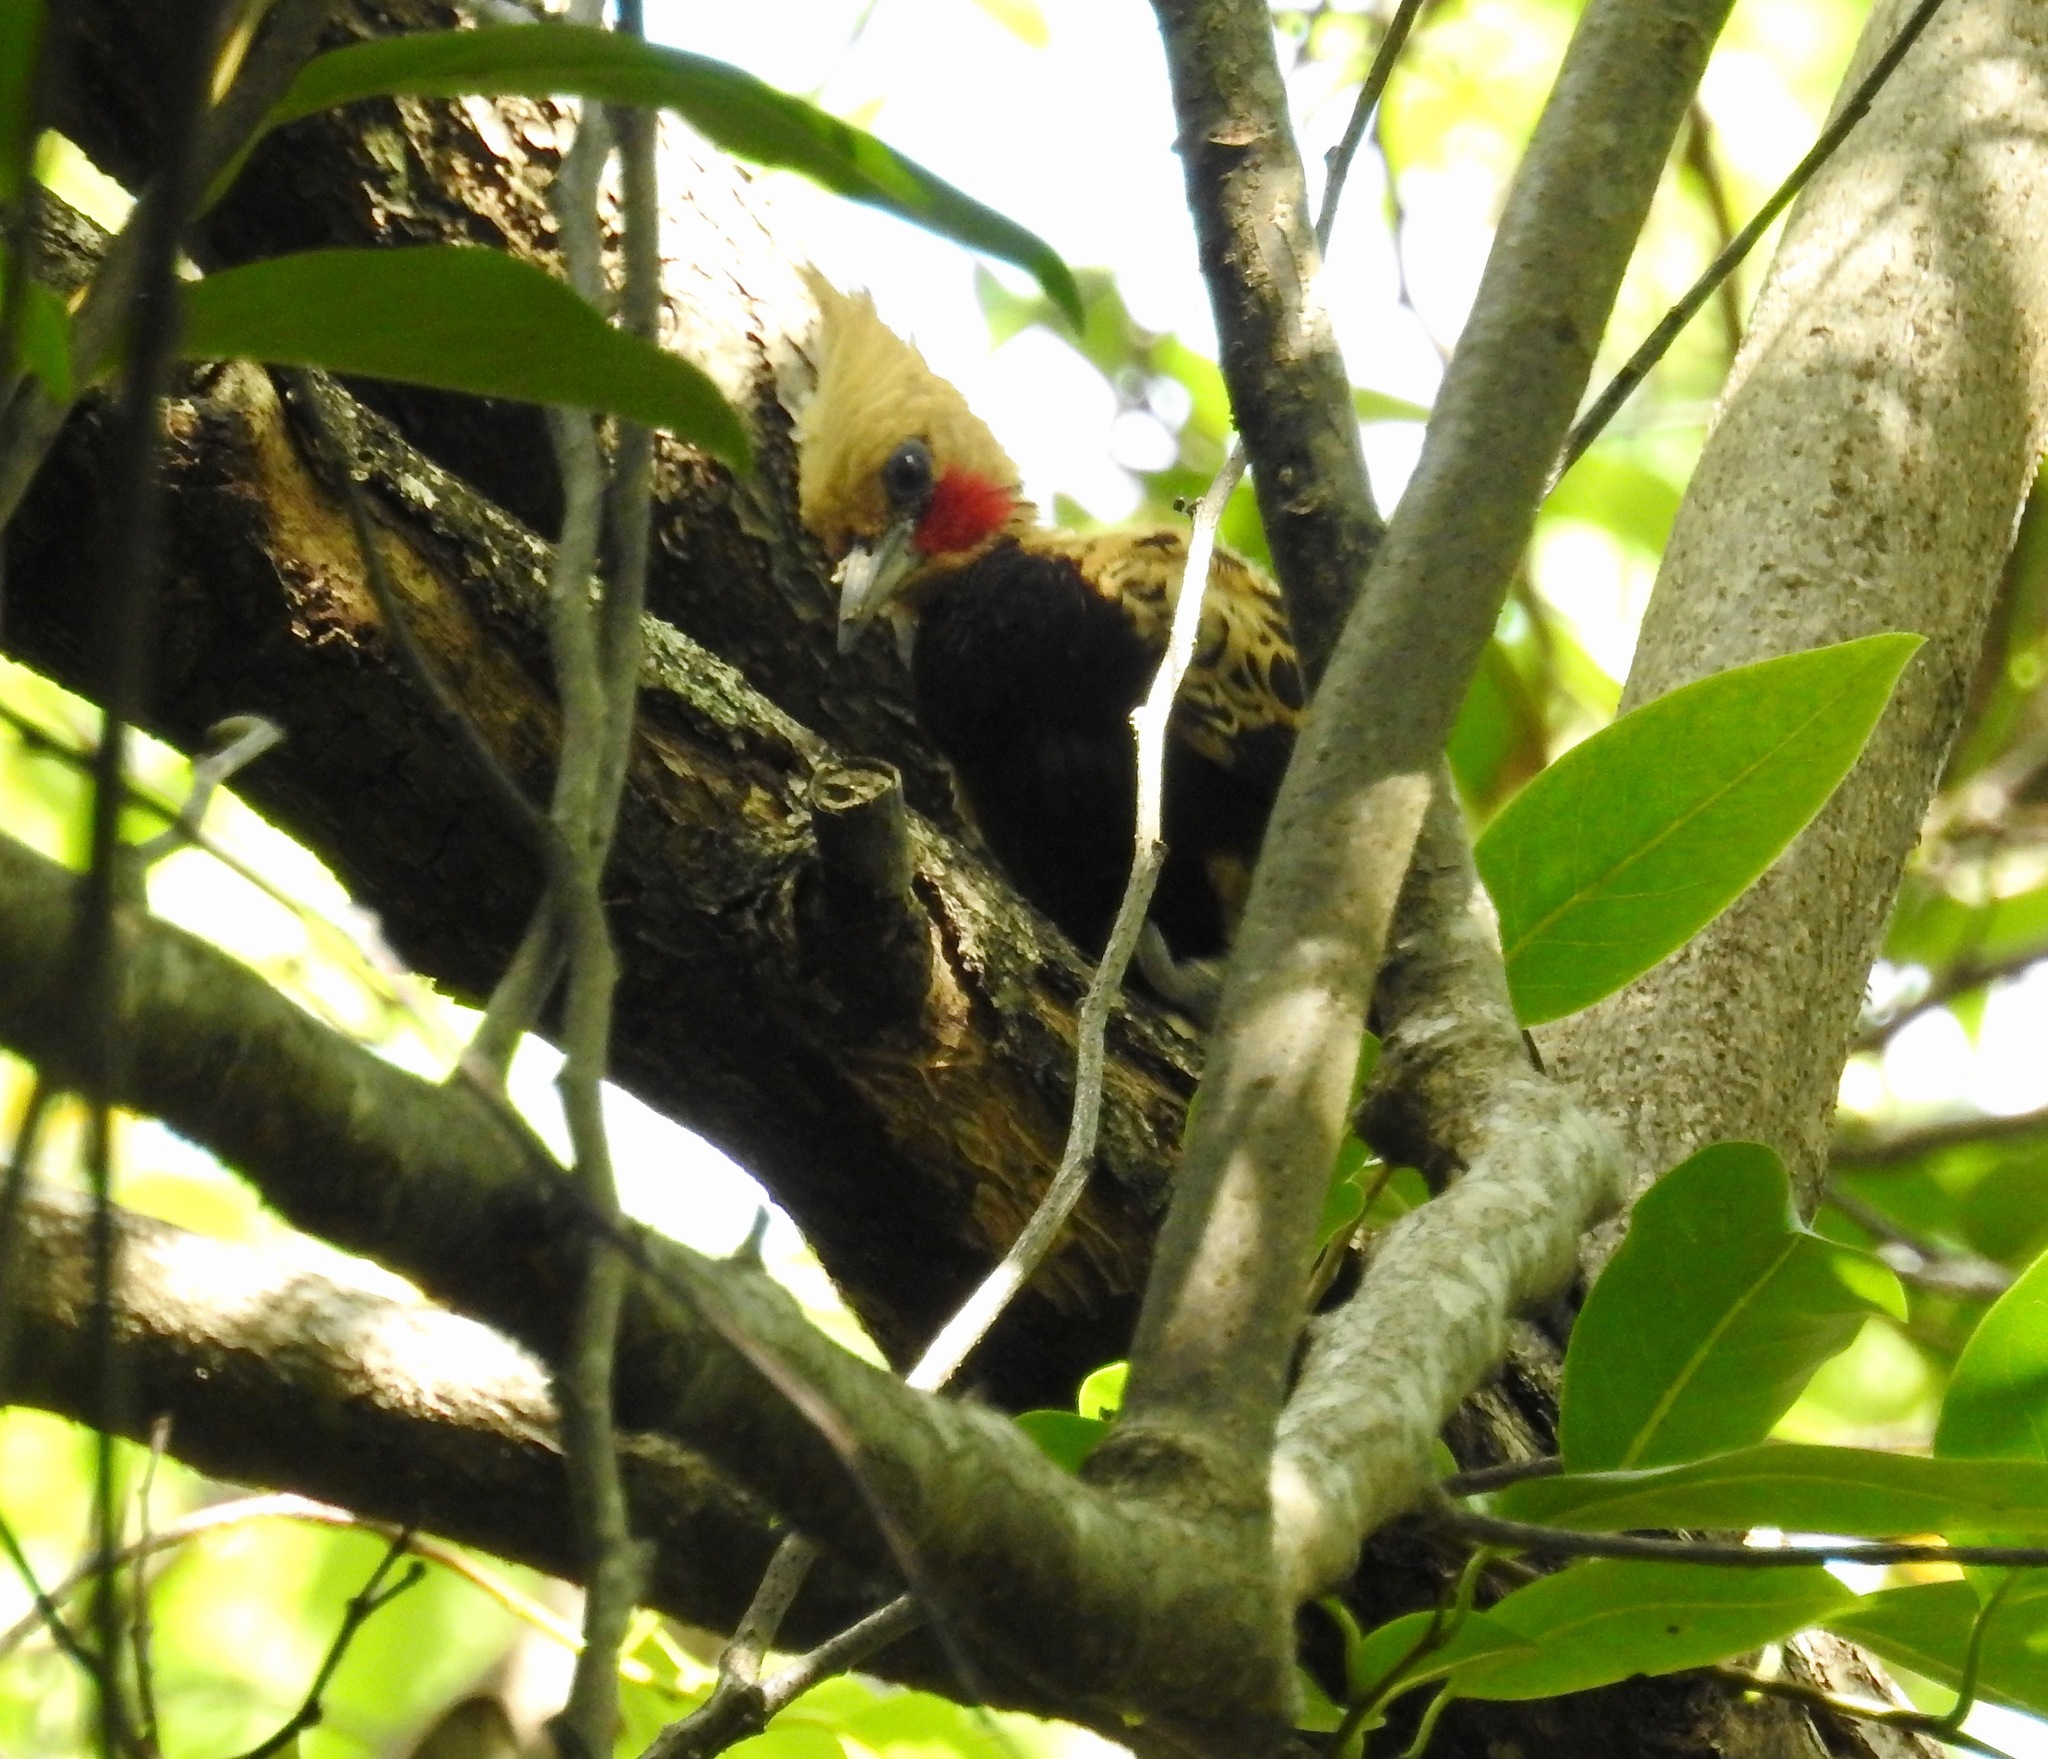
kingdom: Animalia
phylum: Chordata
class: Aves
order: Piciformes
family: Picidae
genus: Celeus
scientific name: Celeus ochraceus
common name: Ochre-backed woodpecker
